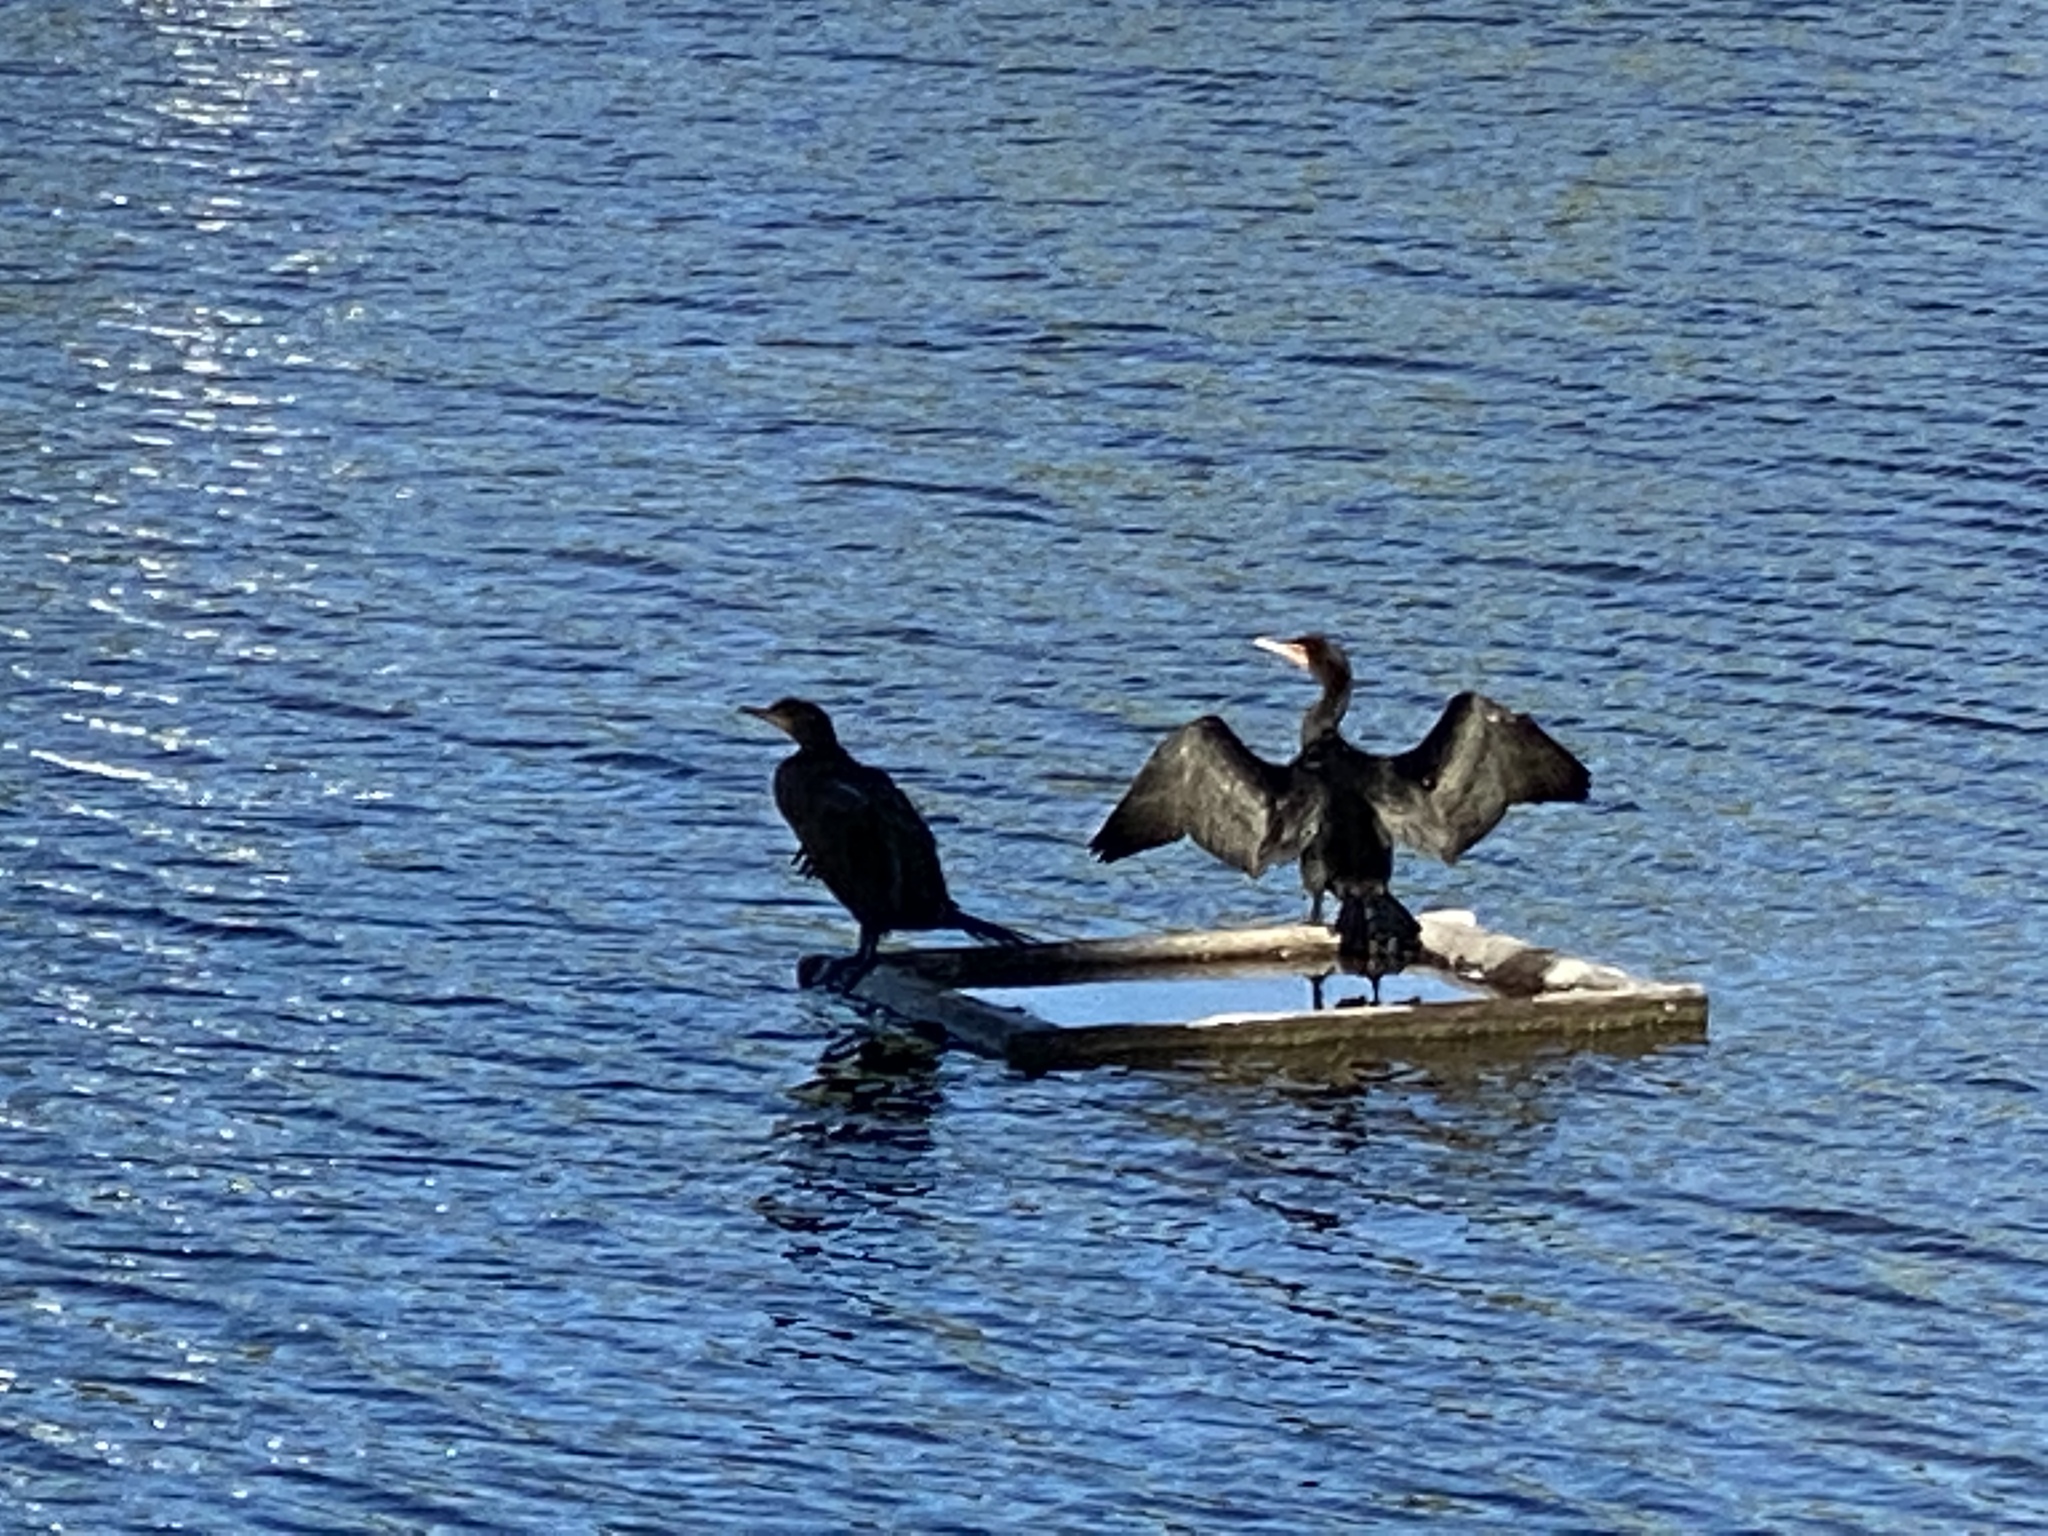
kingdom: Animalia
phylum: Chordata
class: Aves
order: Suliformes
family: Phalacrocoracidae
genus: Phalacrocorax
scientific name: Phalacrocorax auritus
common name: Double-crested cormorant
